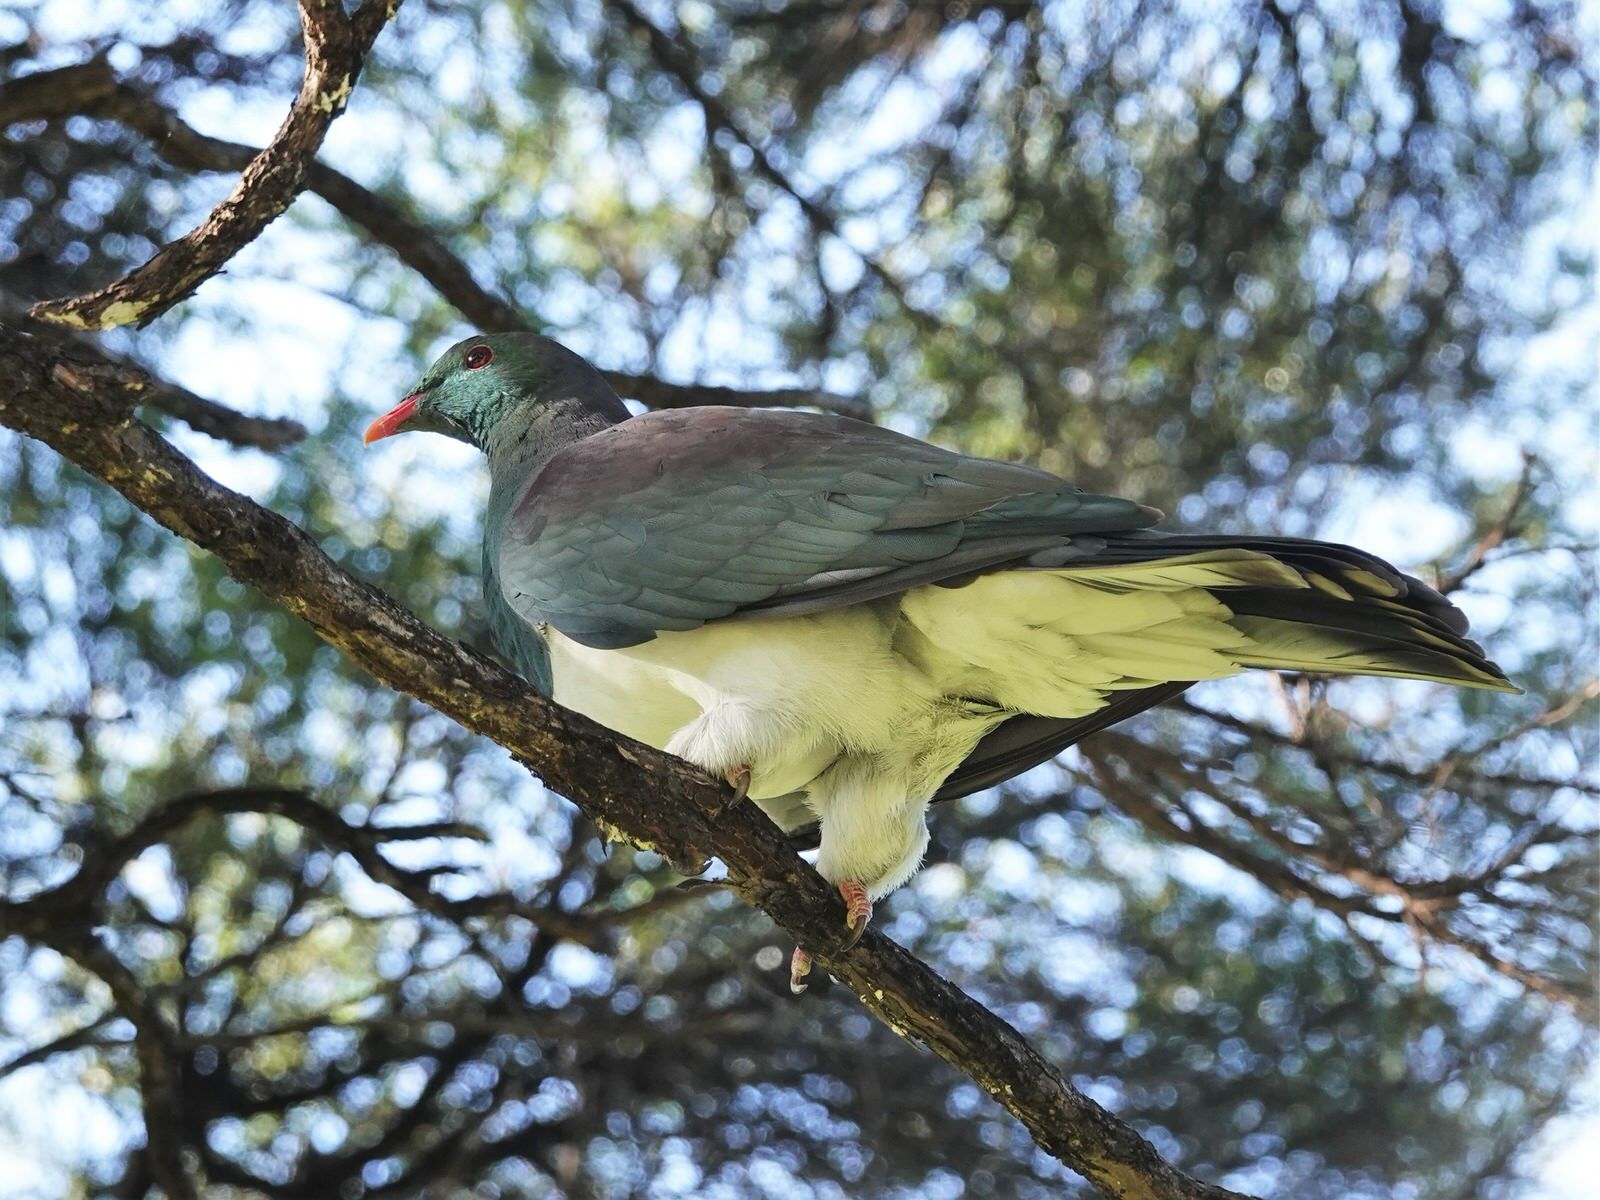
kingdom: Animalia
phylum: Chordata
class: Aves
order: Columbiformes
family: Columbidae
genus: Hemiphaga
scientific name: Hemiphaga novaeseelandiae
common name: New zealand pigeon
